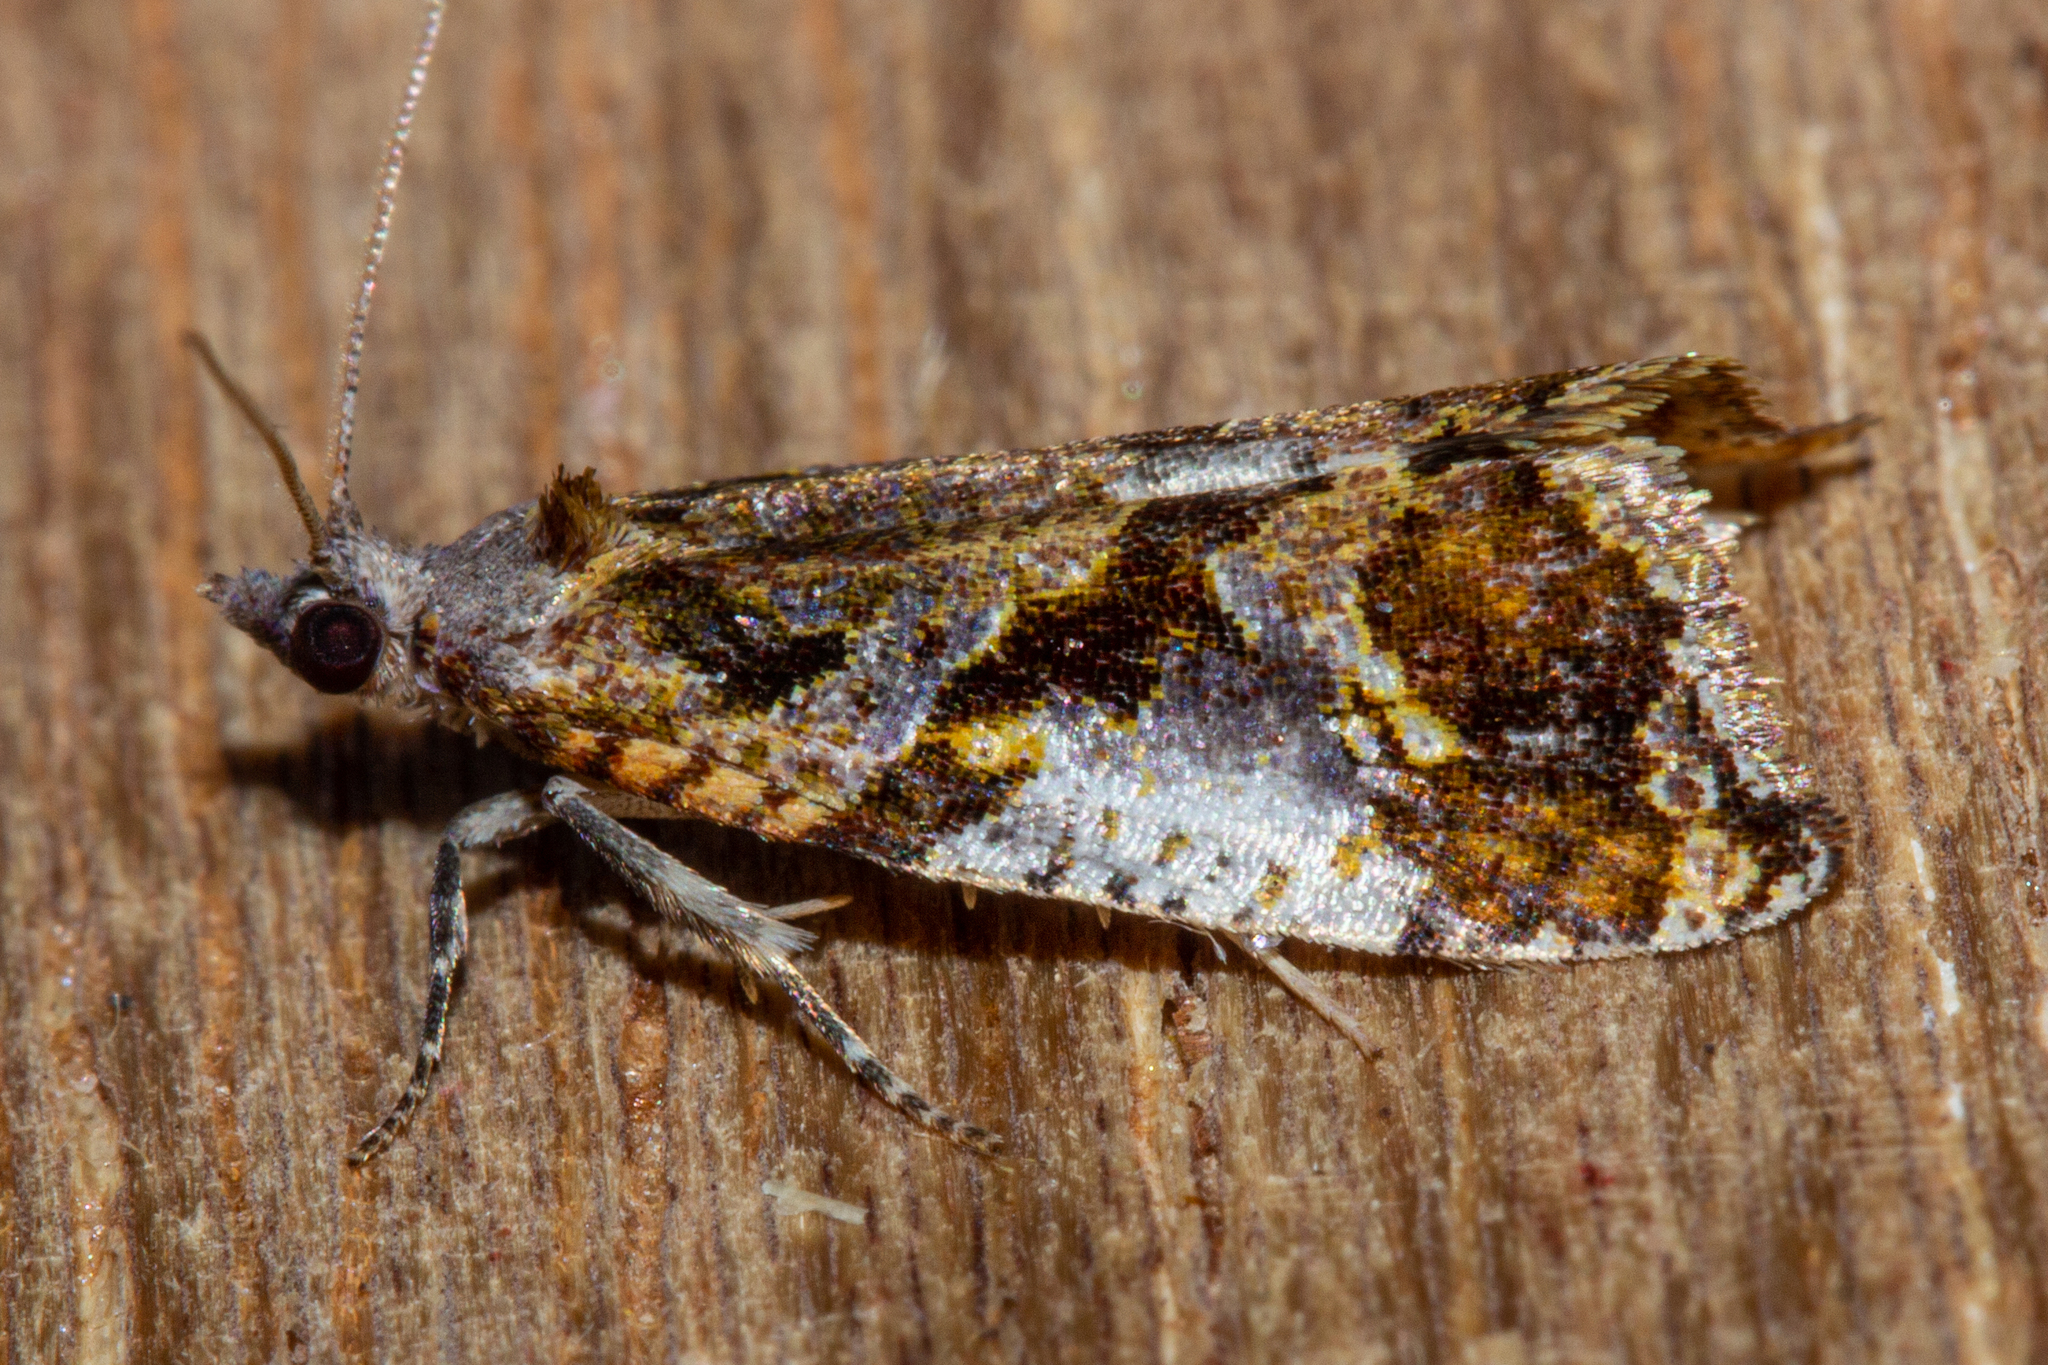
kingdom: Animalia
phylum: Arthropoda
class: Insecta
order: Lepidoptera
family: Tortricidae
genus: Pyrgotis
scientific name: Pyrgotis plagiatana
